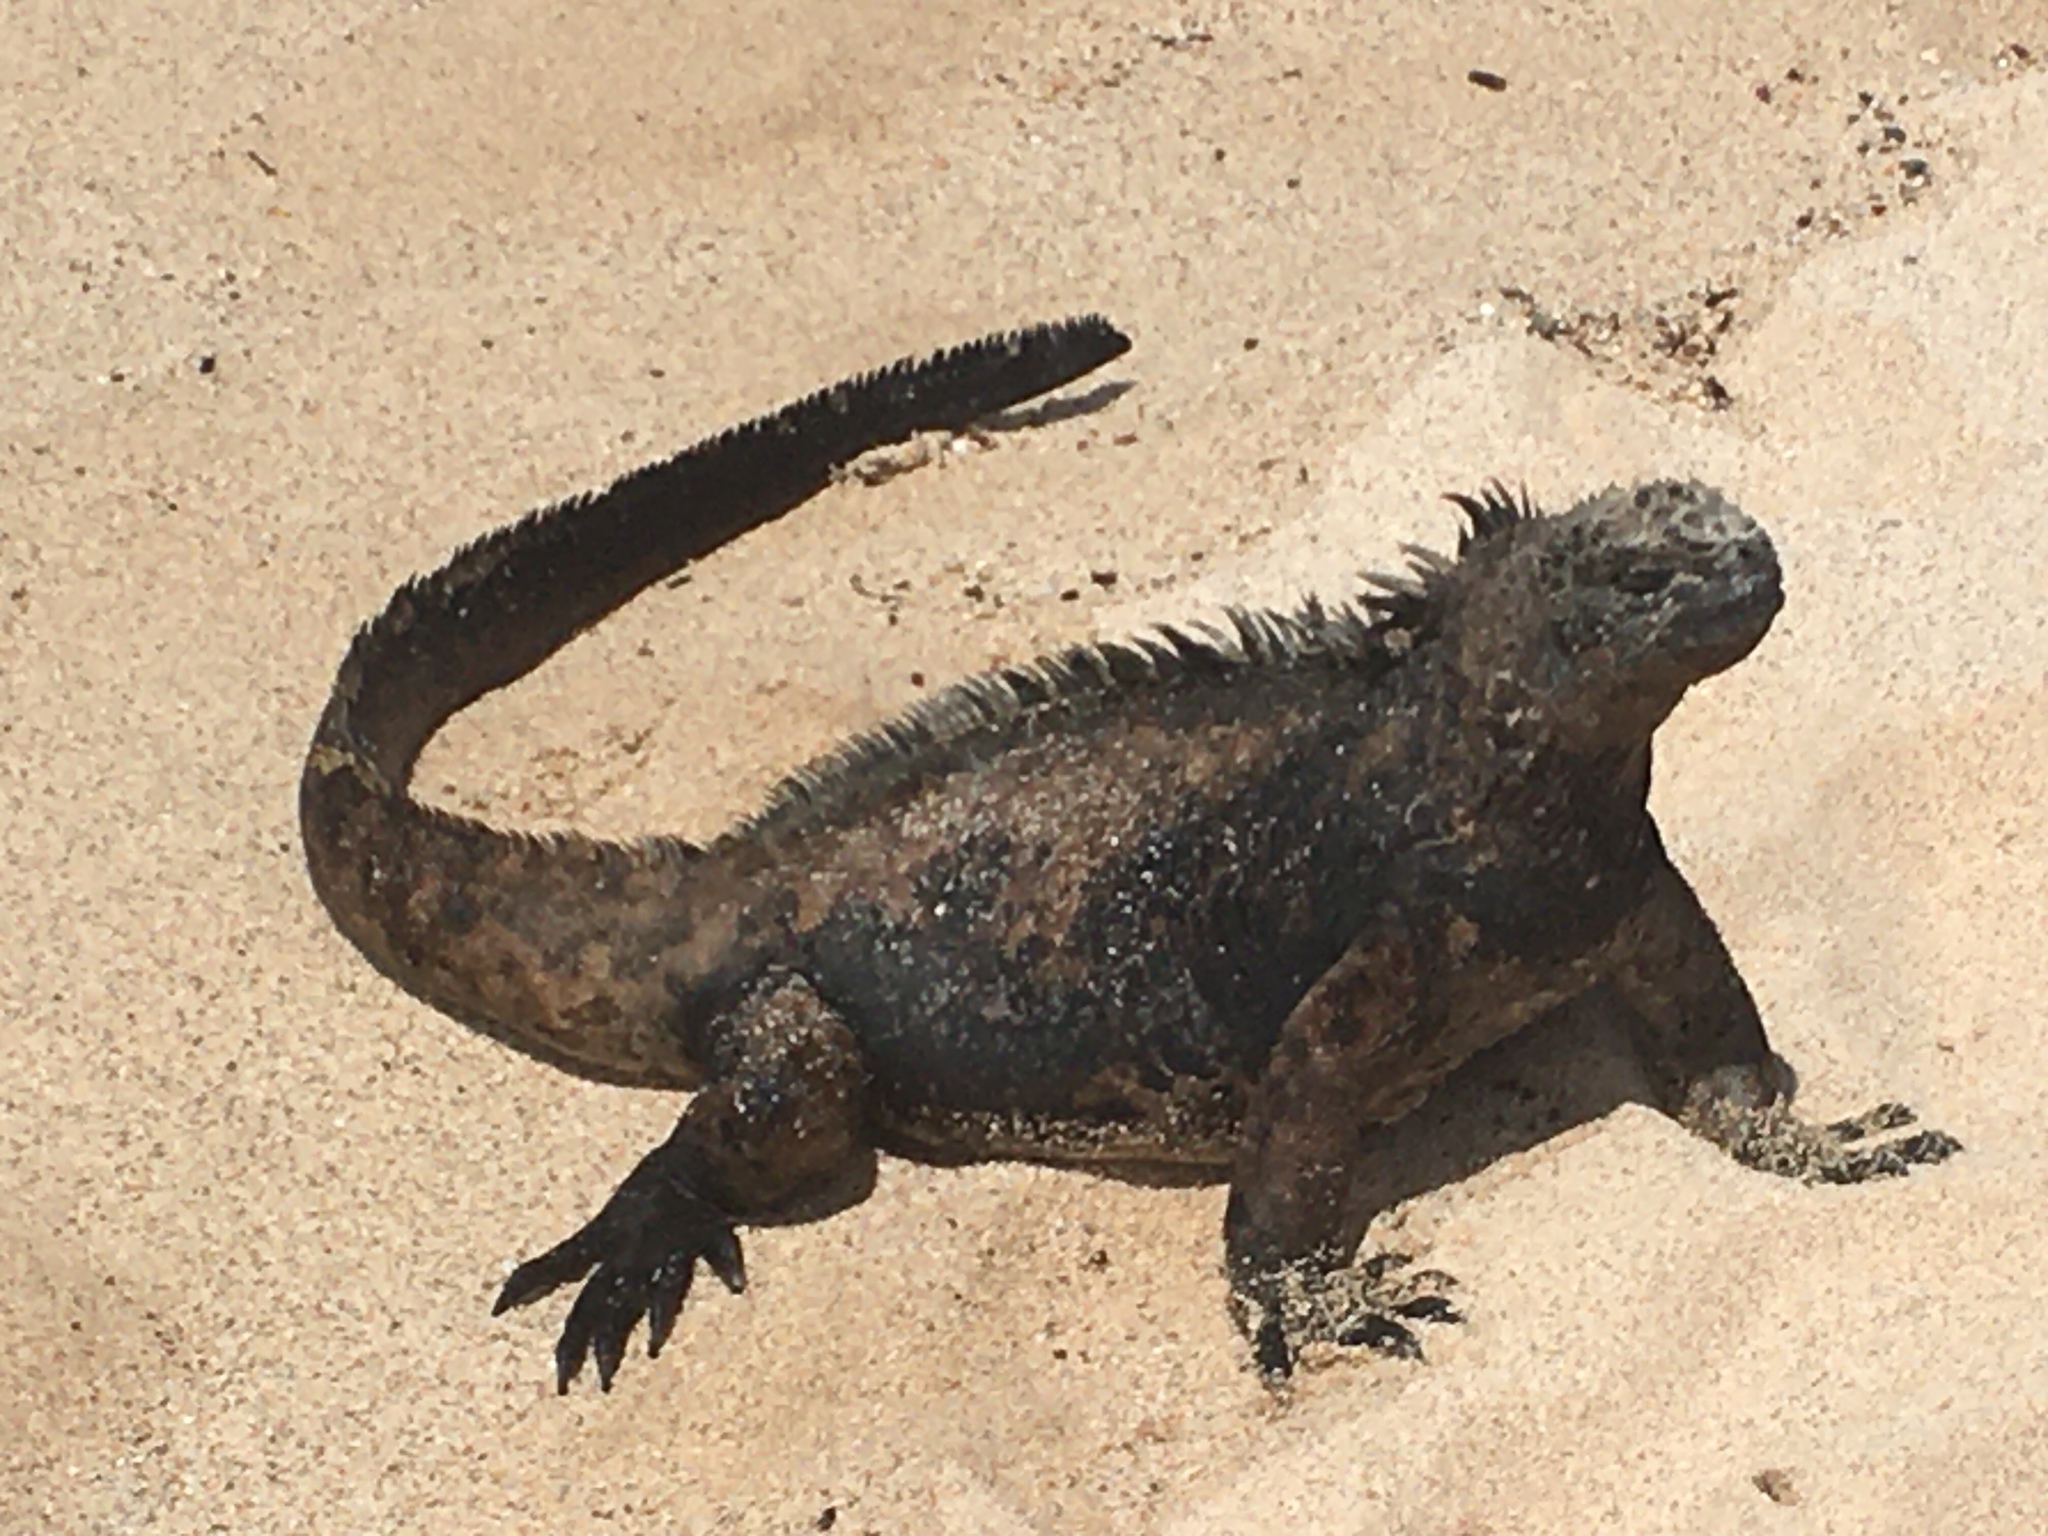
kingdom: Animalia
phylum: Chordata
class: Squamata
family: Iguanidae
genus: Amblyrhynchus
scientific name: Amblyrhynchus cristatus
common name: Marine iguana
